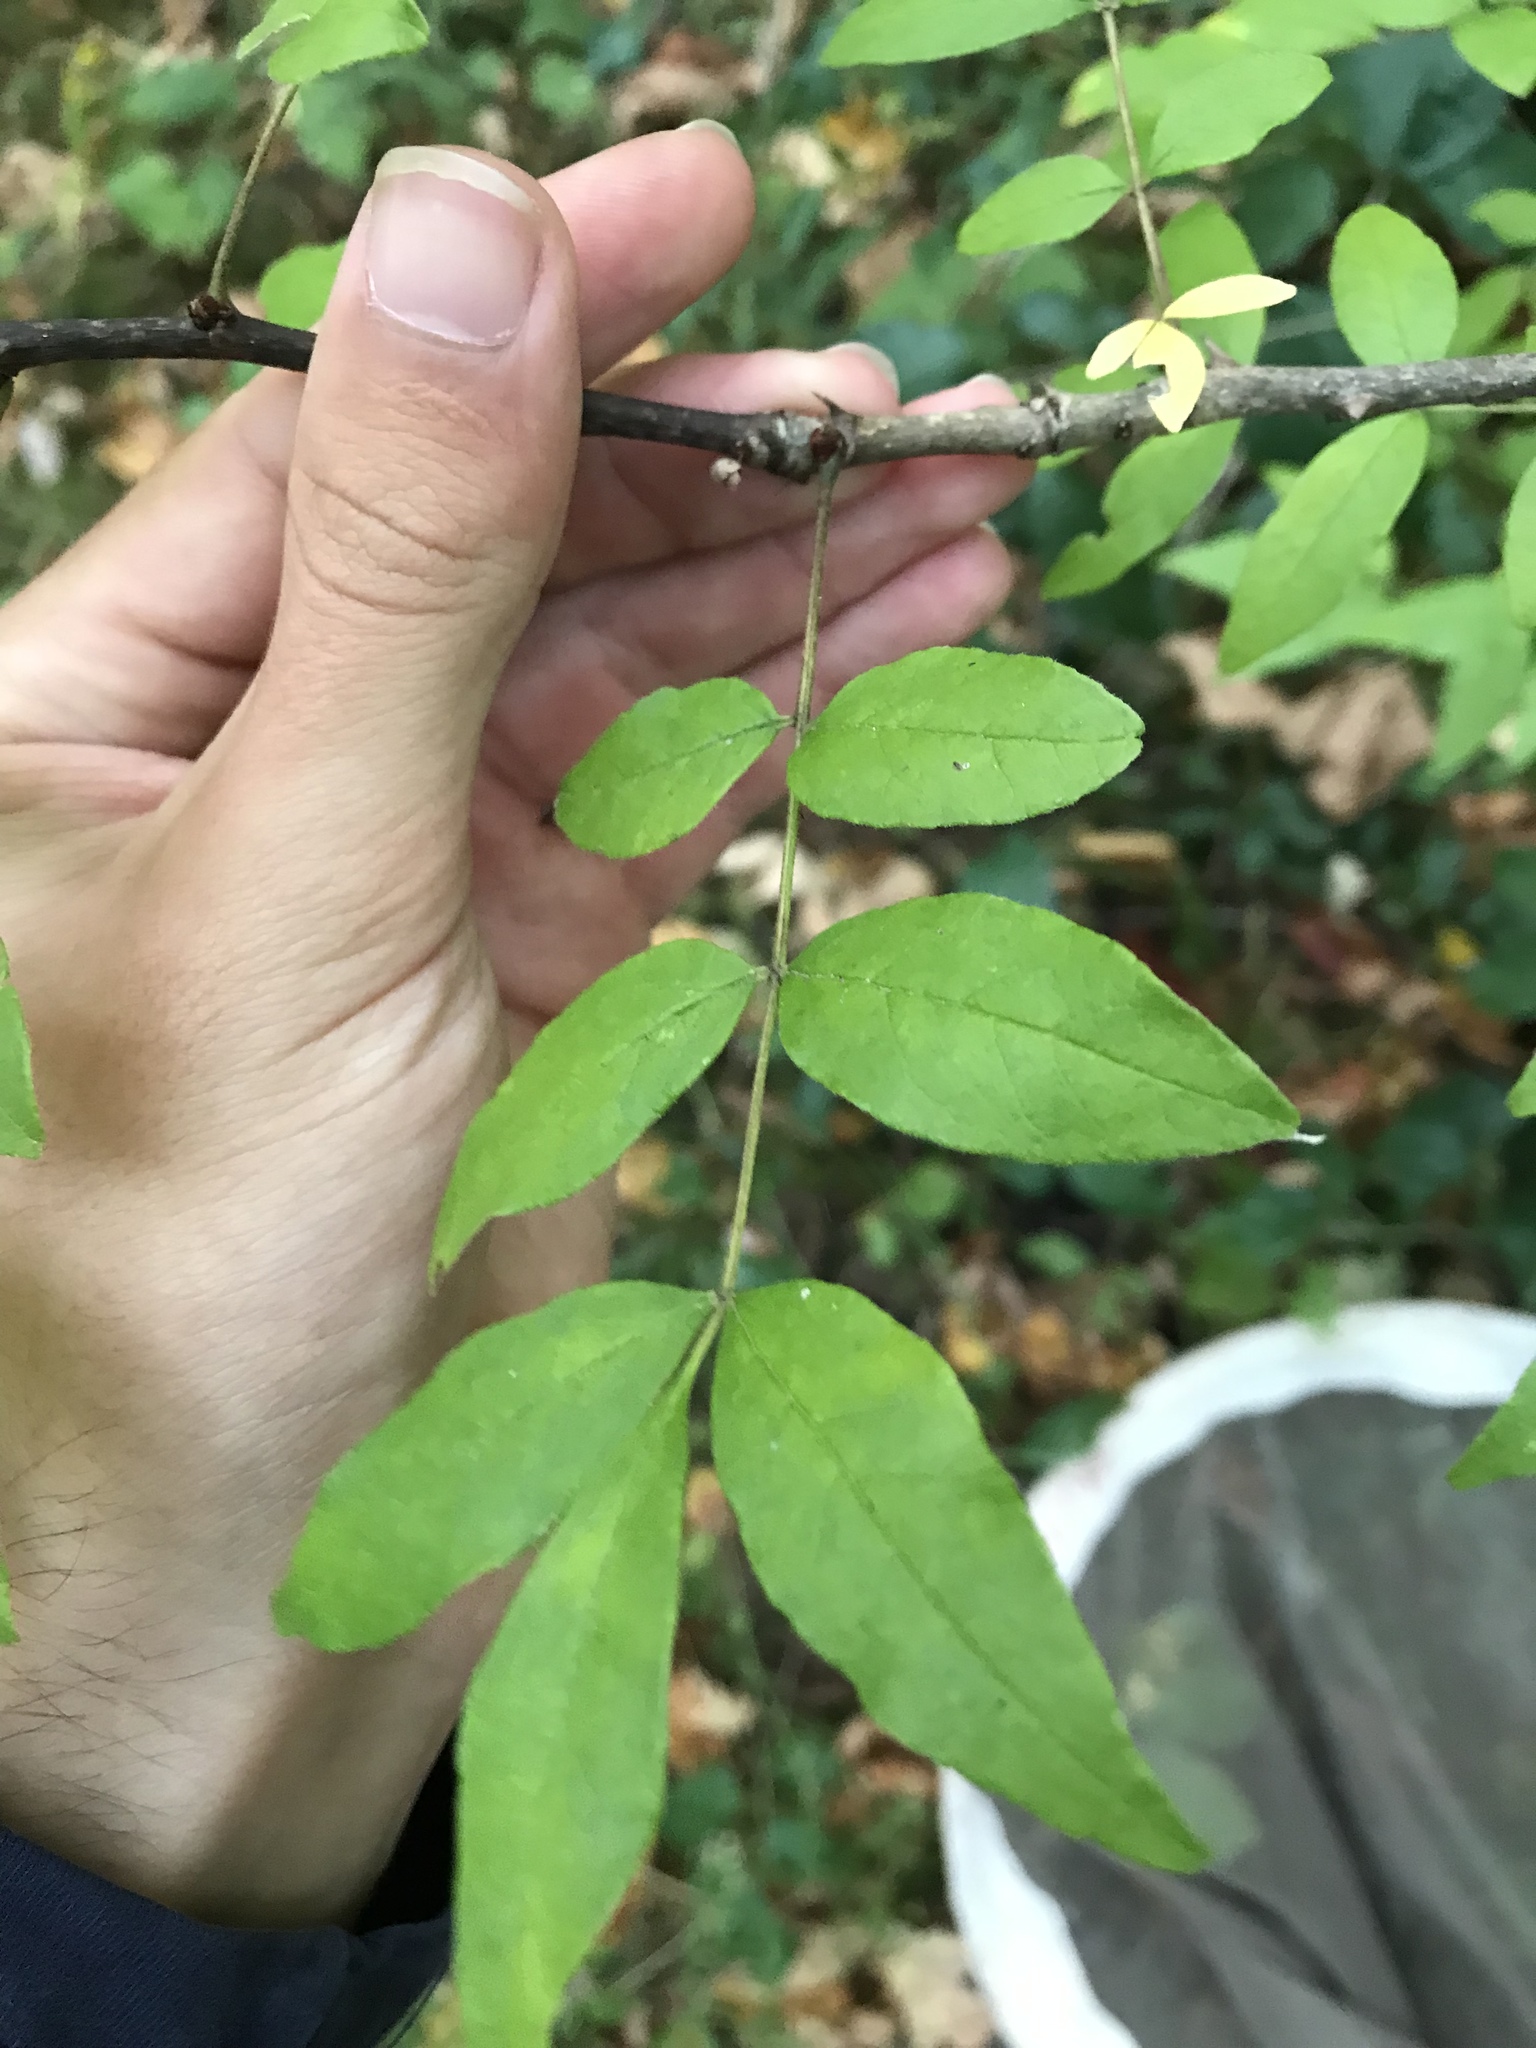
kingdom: Plantae
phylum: Tracheophyta
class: Magnoliopsida
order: Sapindales
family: Rutaceae
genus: Zanthoxylum
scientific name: Zanthoxylum americanum
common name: Northern prickly-ash
